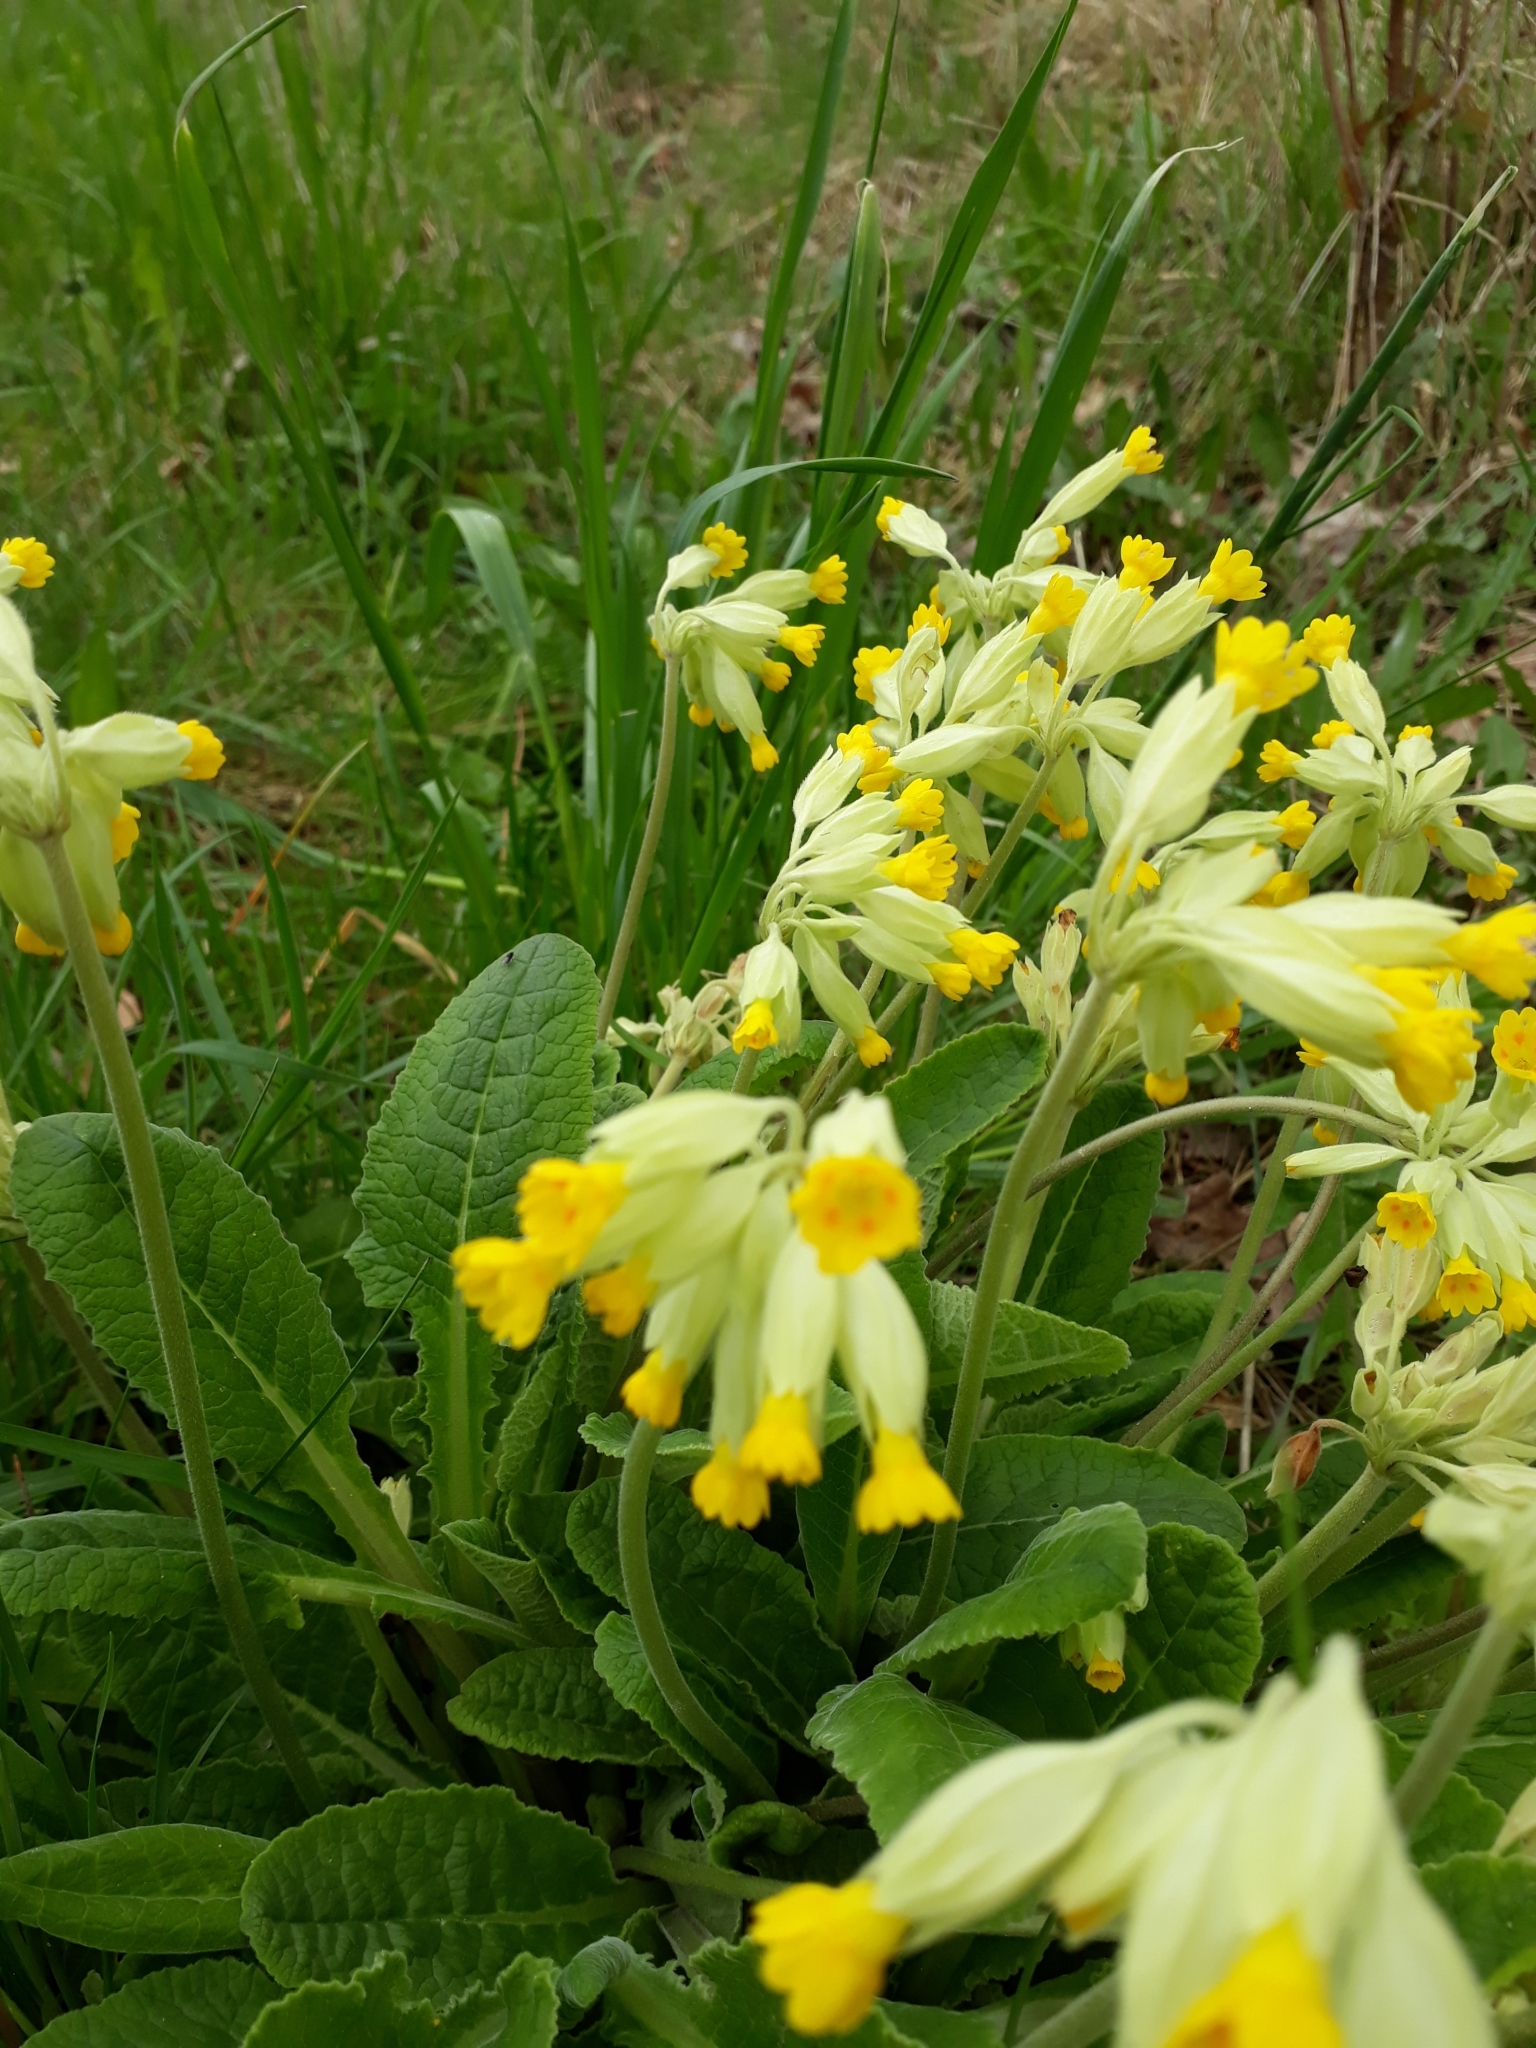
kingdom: Plantae
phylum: Tracheophyta
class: Magnoliopsida
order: Ericales
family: Primulaceae
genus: Primula
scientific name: Primula veris
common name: Cowslip
